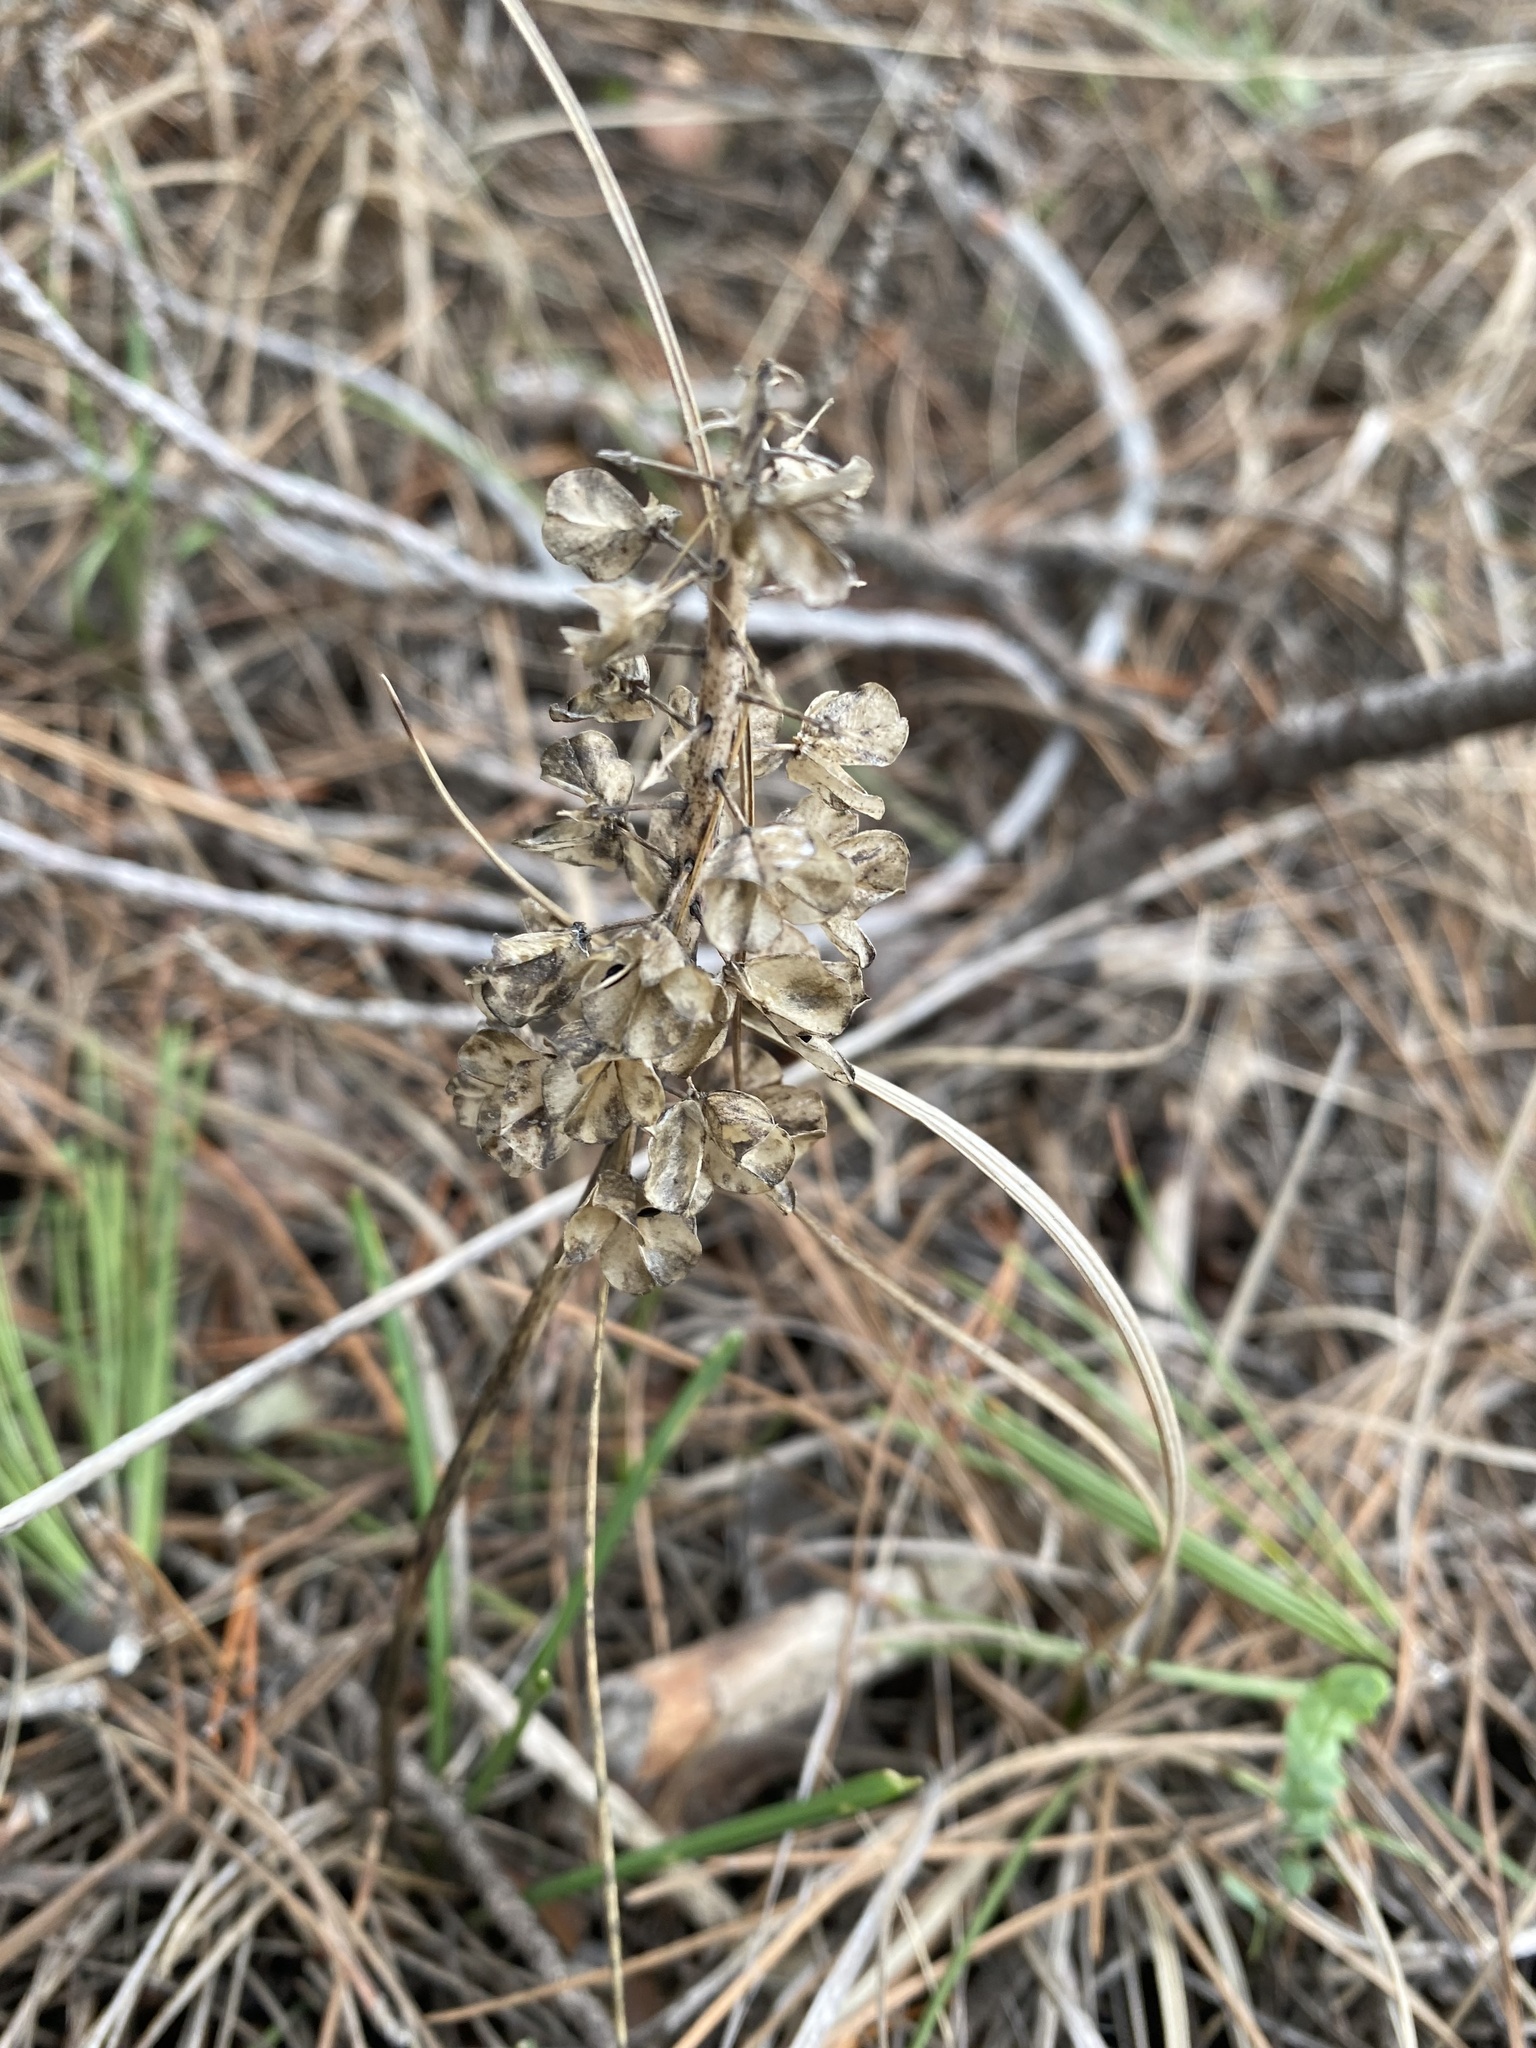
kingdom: Plantae
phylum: Tracheophyta
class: Liliopsida
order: Asparagales
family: Asparagaceae
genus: Muscari
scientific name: Muscari neglectum
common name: Grape-hyacinth
